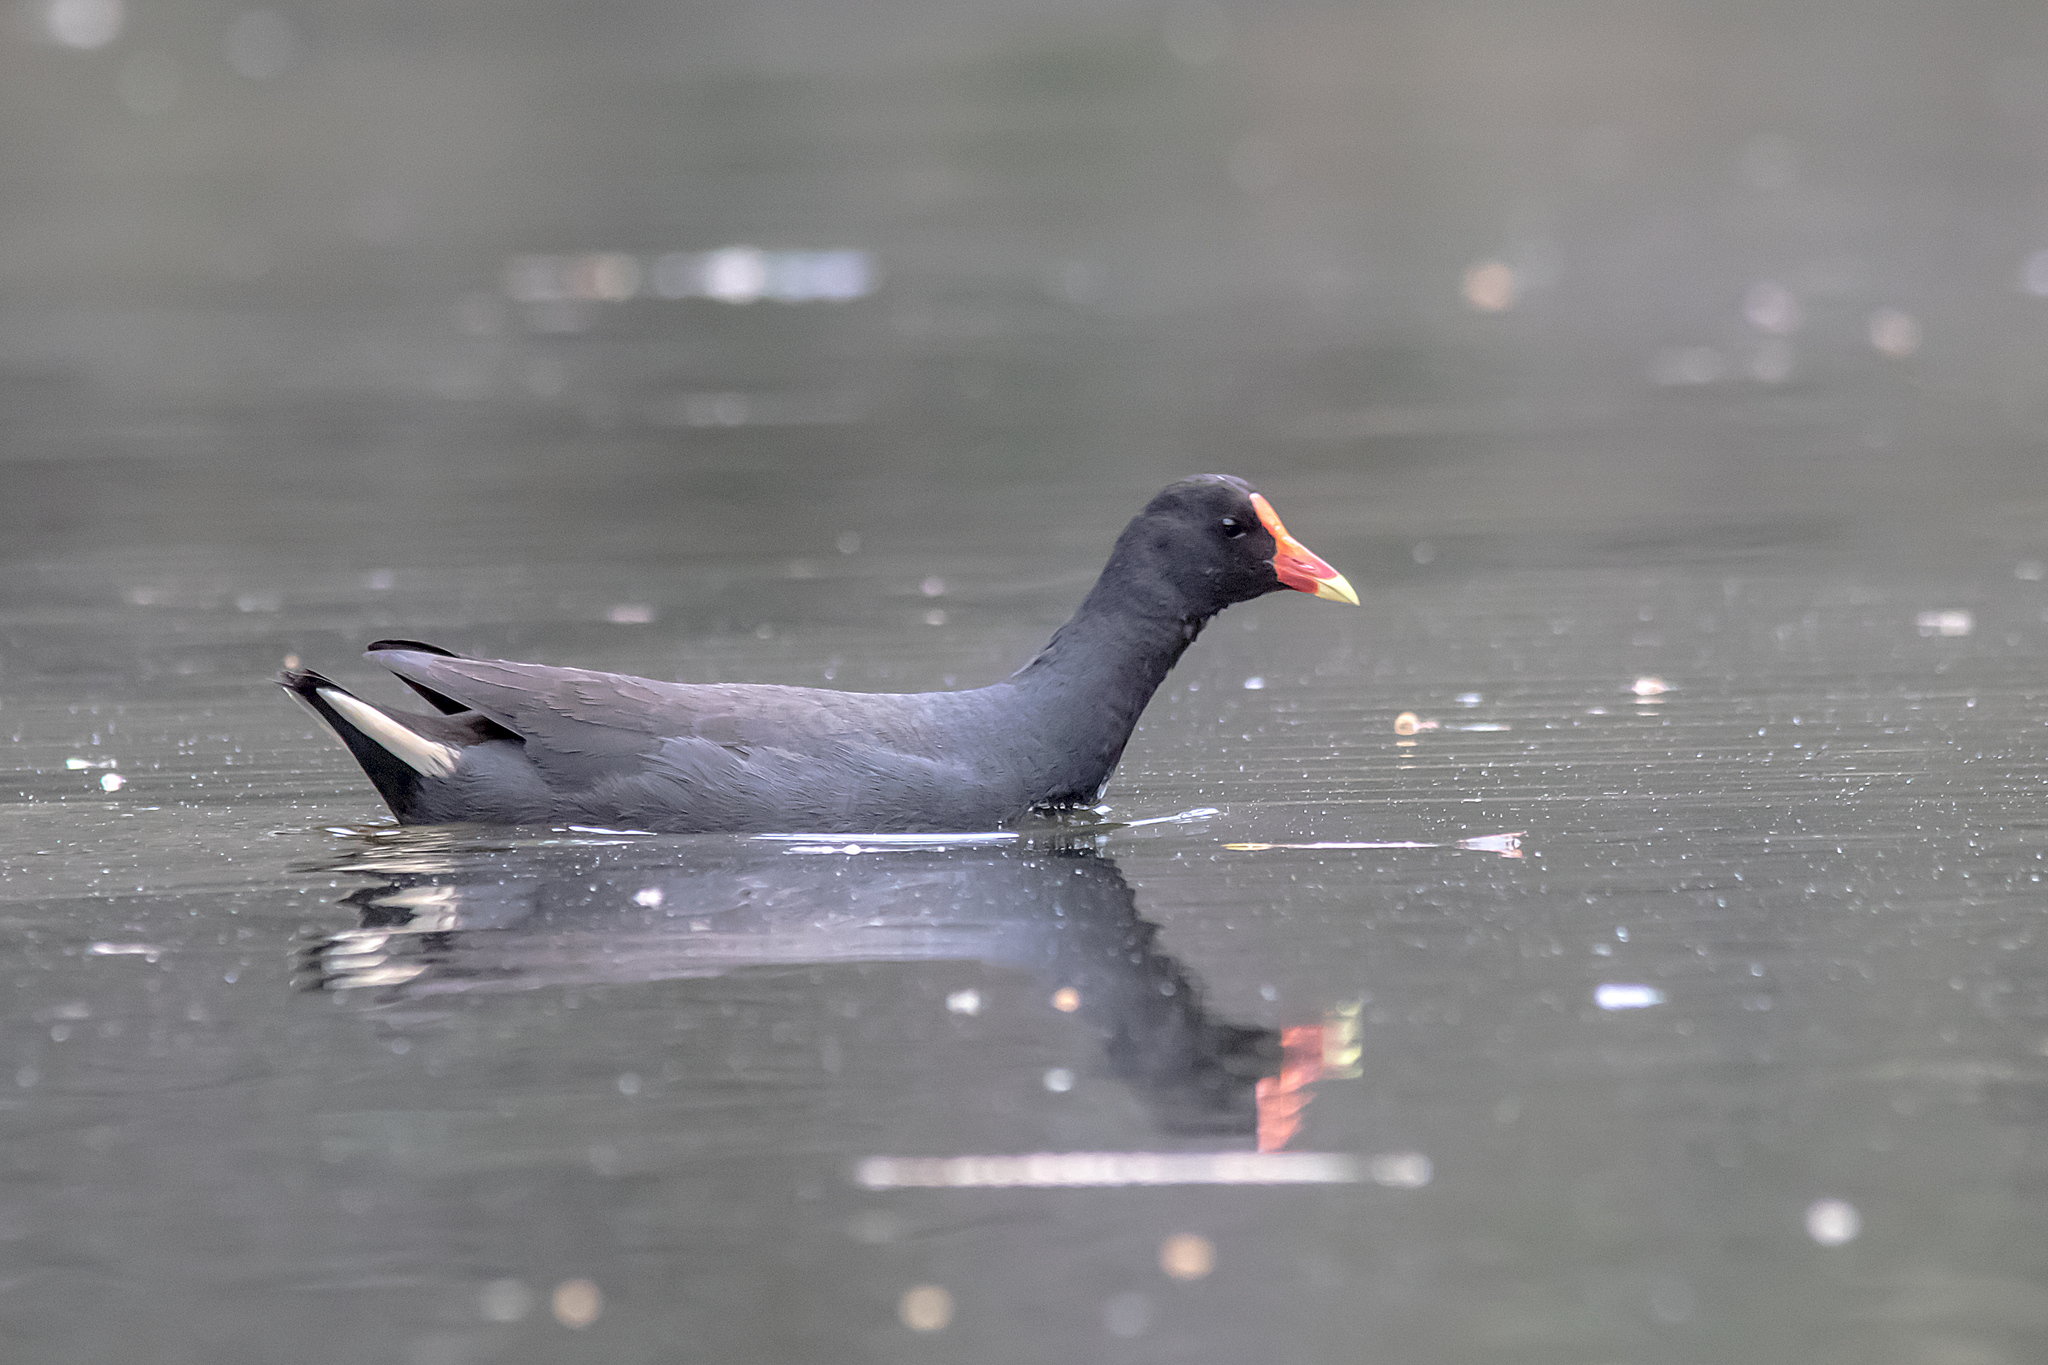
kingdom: Animalia
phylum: Chordata
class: Aves
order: Gruiformes
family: Rallidae
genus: Gallinula
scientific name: Gallinula tenebrosa
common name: Dusky moorhen
